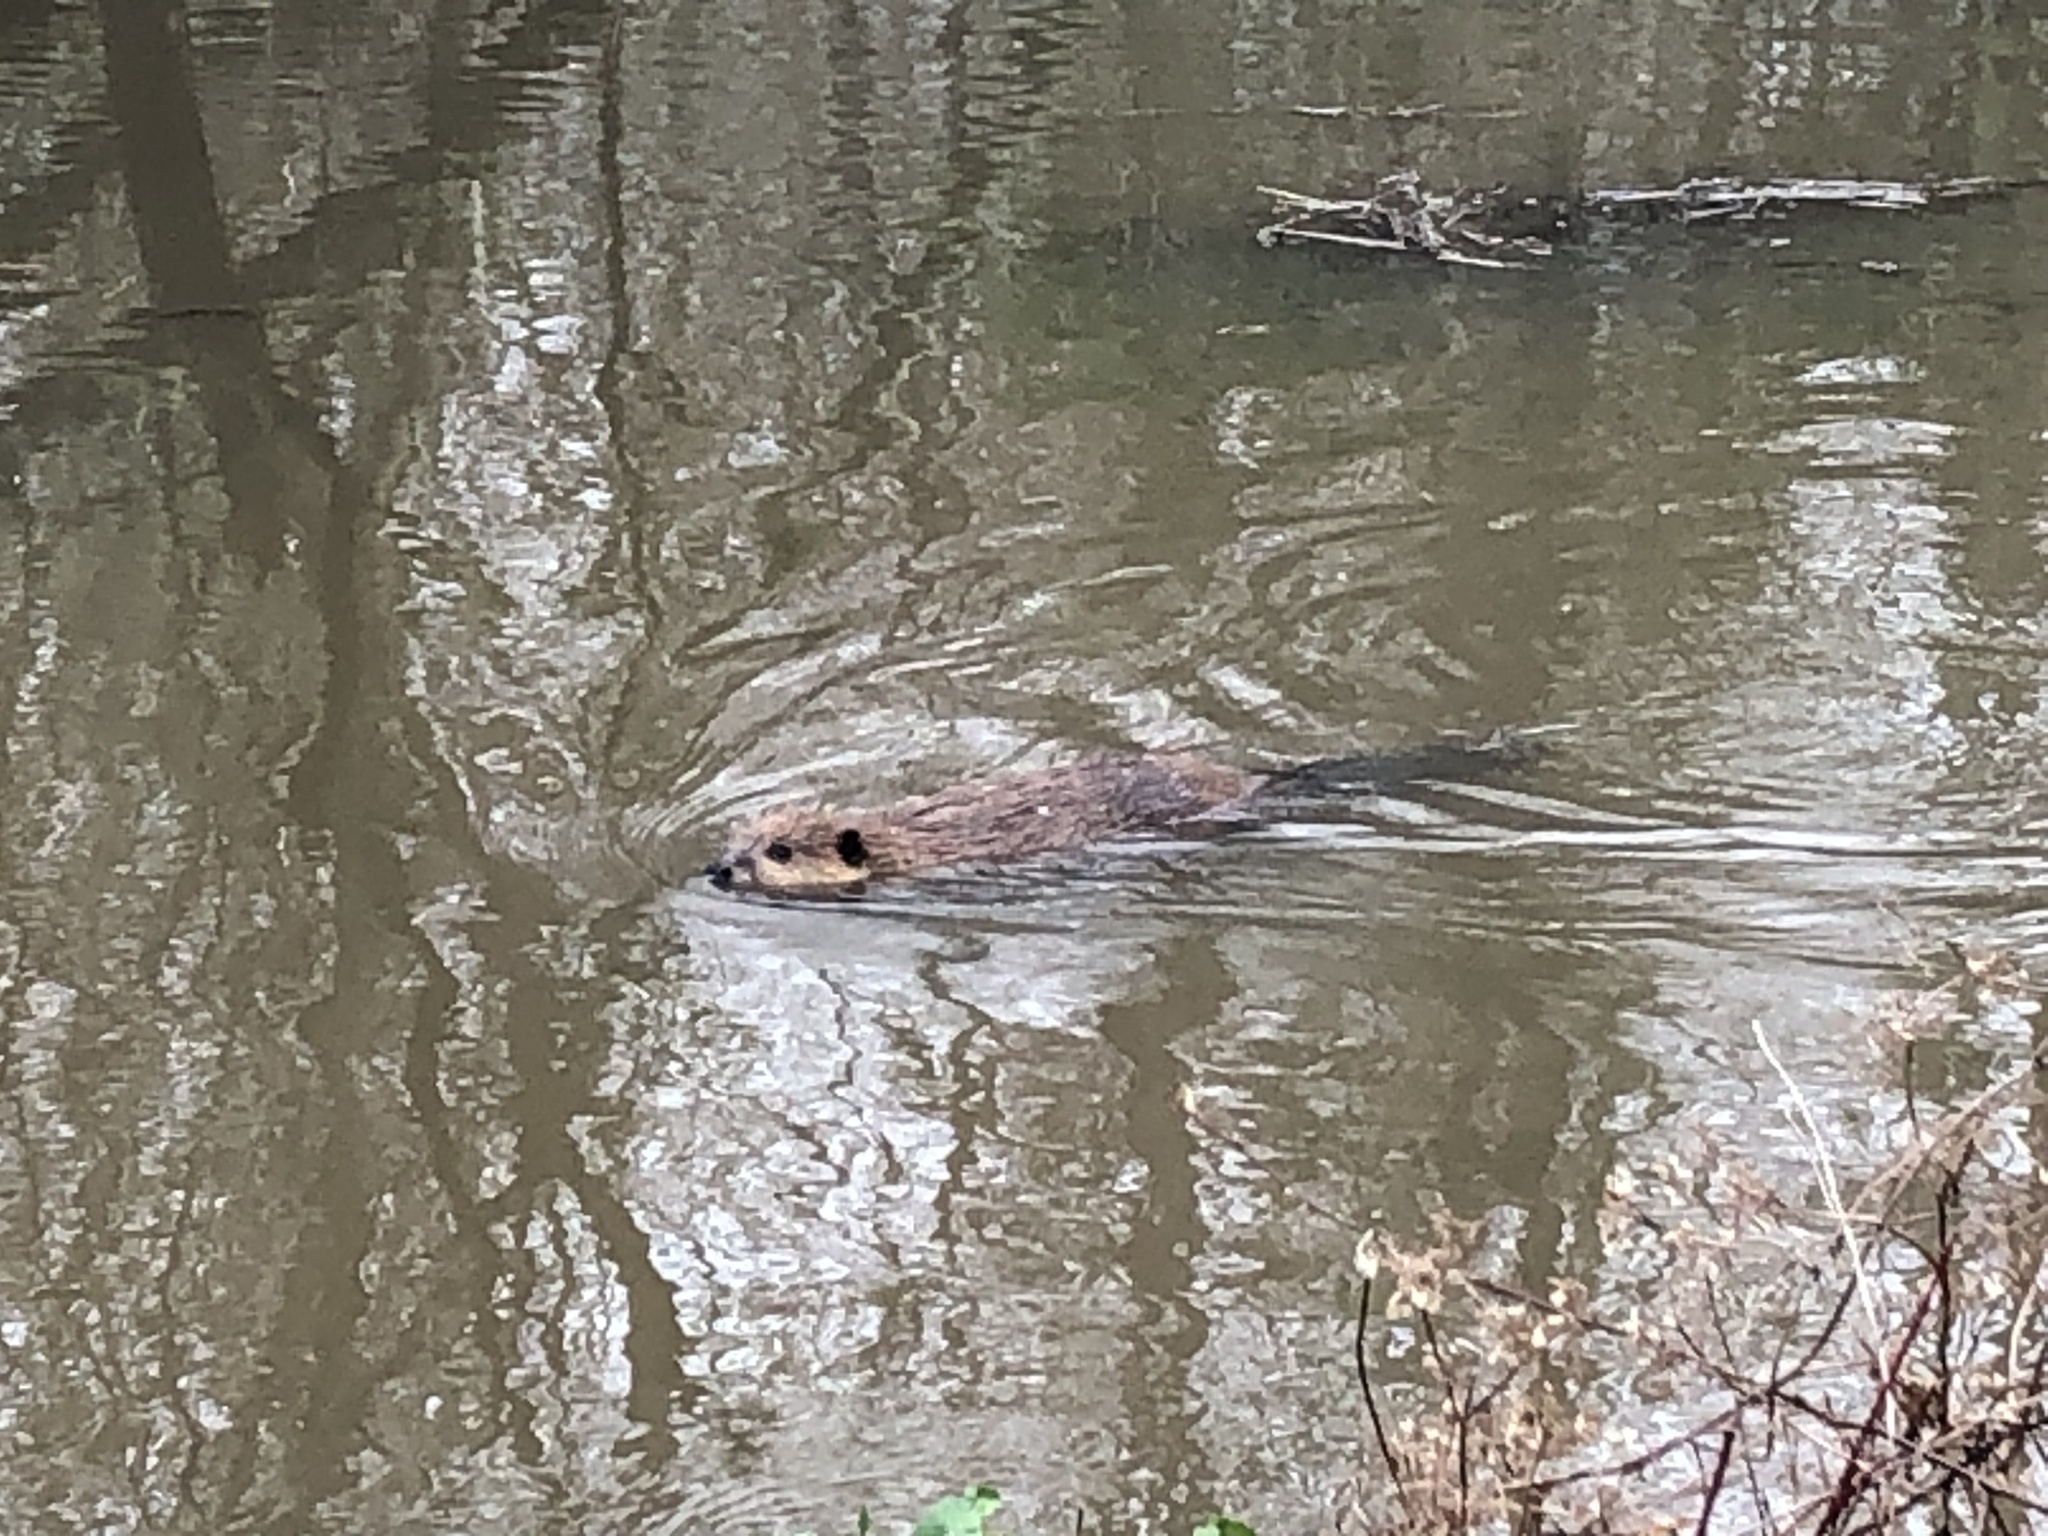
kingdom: Animalia
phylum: Chordata
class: Mammalia
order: Rodentia
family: Castoridae
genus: Castor
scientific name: Castor canadensis
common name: American beaver
